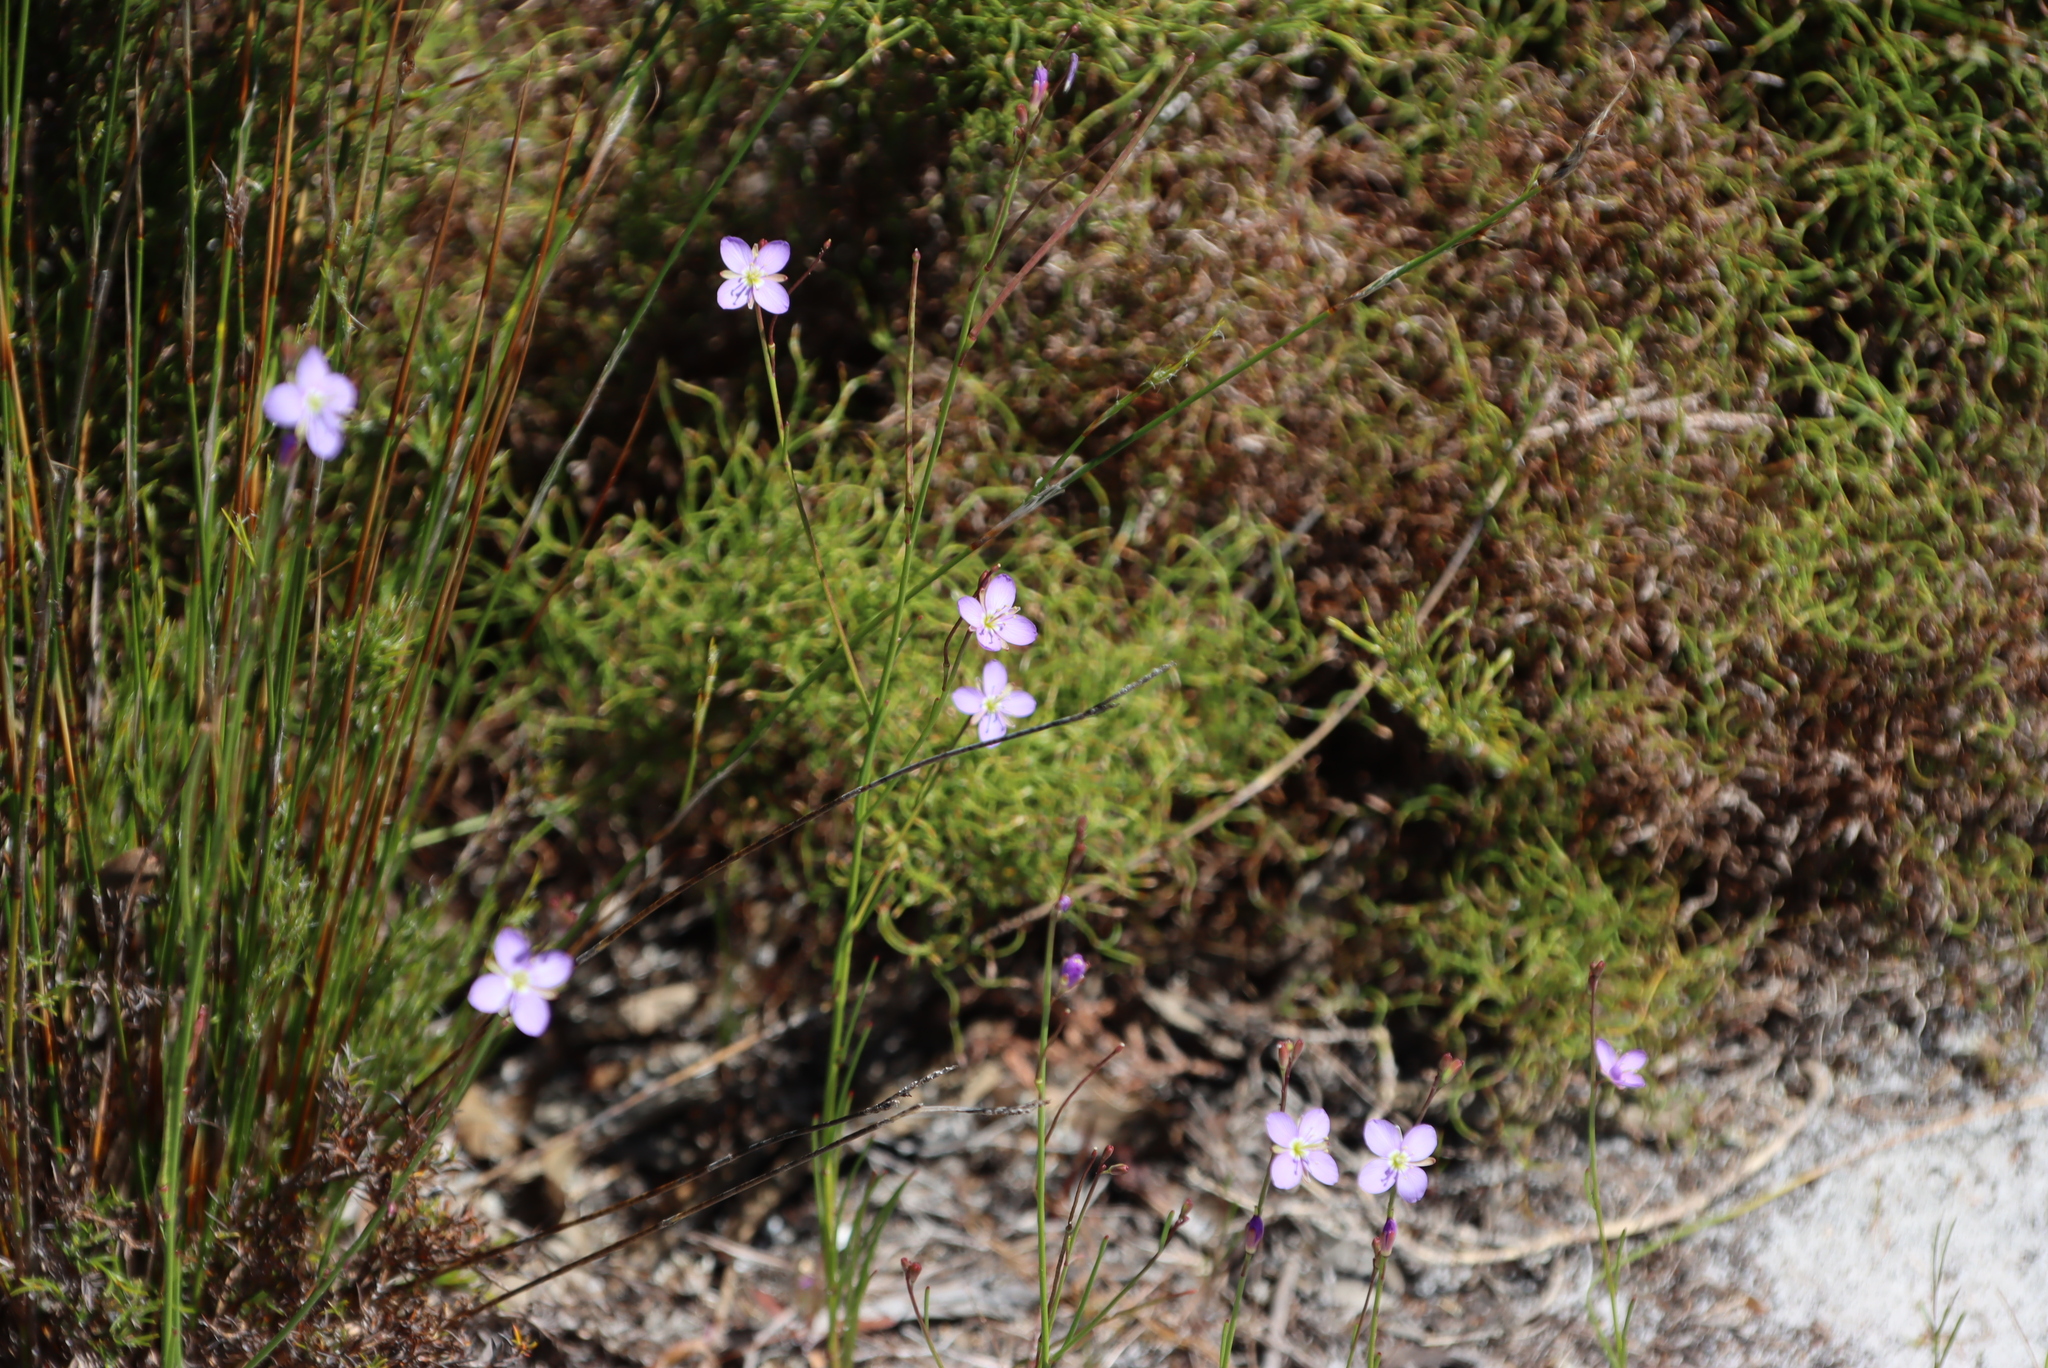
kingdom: Plantae
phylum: Tracheophyta
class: Magnoliopsida
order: Brassicales
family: Brassicaceae
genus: Heliophila
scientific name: Heliophila adpressa
